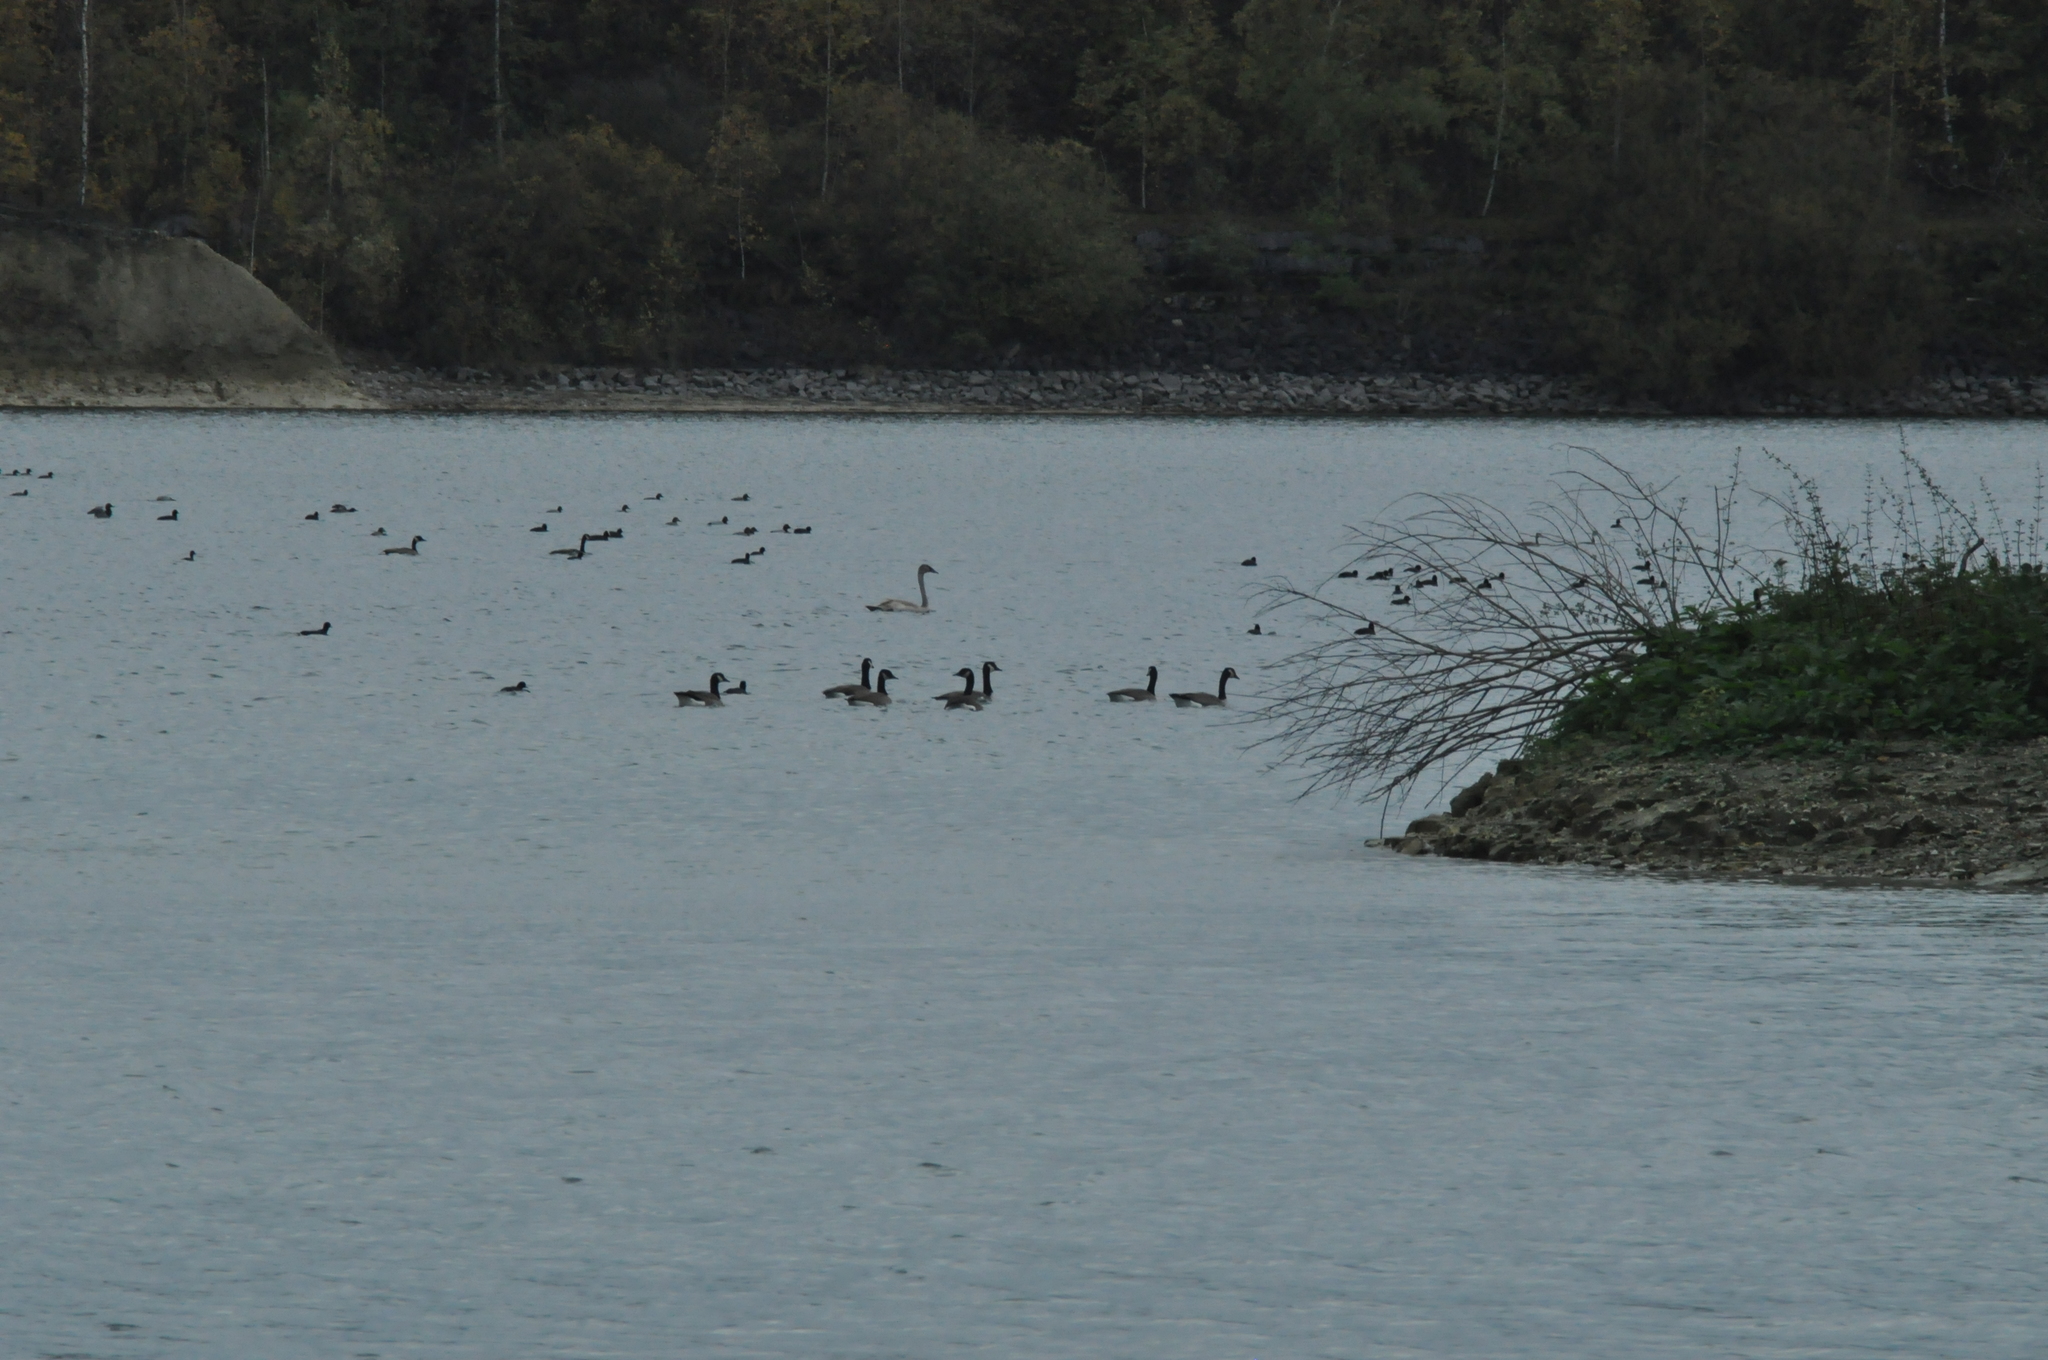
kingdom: Animalia
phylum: Chordata
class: Aves
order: Anseriformes
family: Anatidae
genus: Branta
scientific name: Branta canadensis
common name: Canada goose
